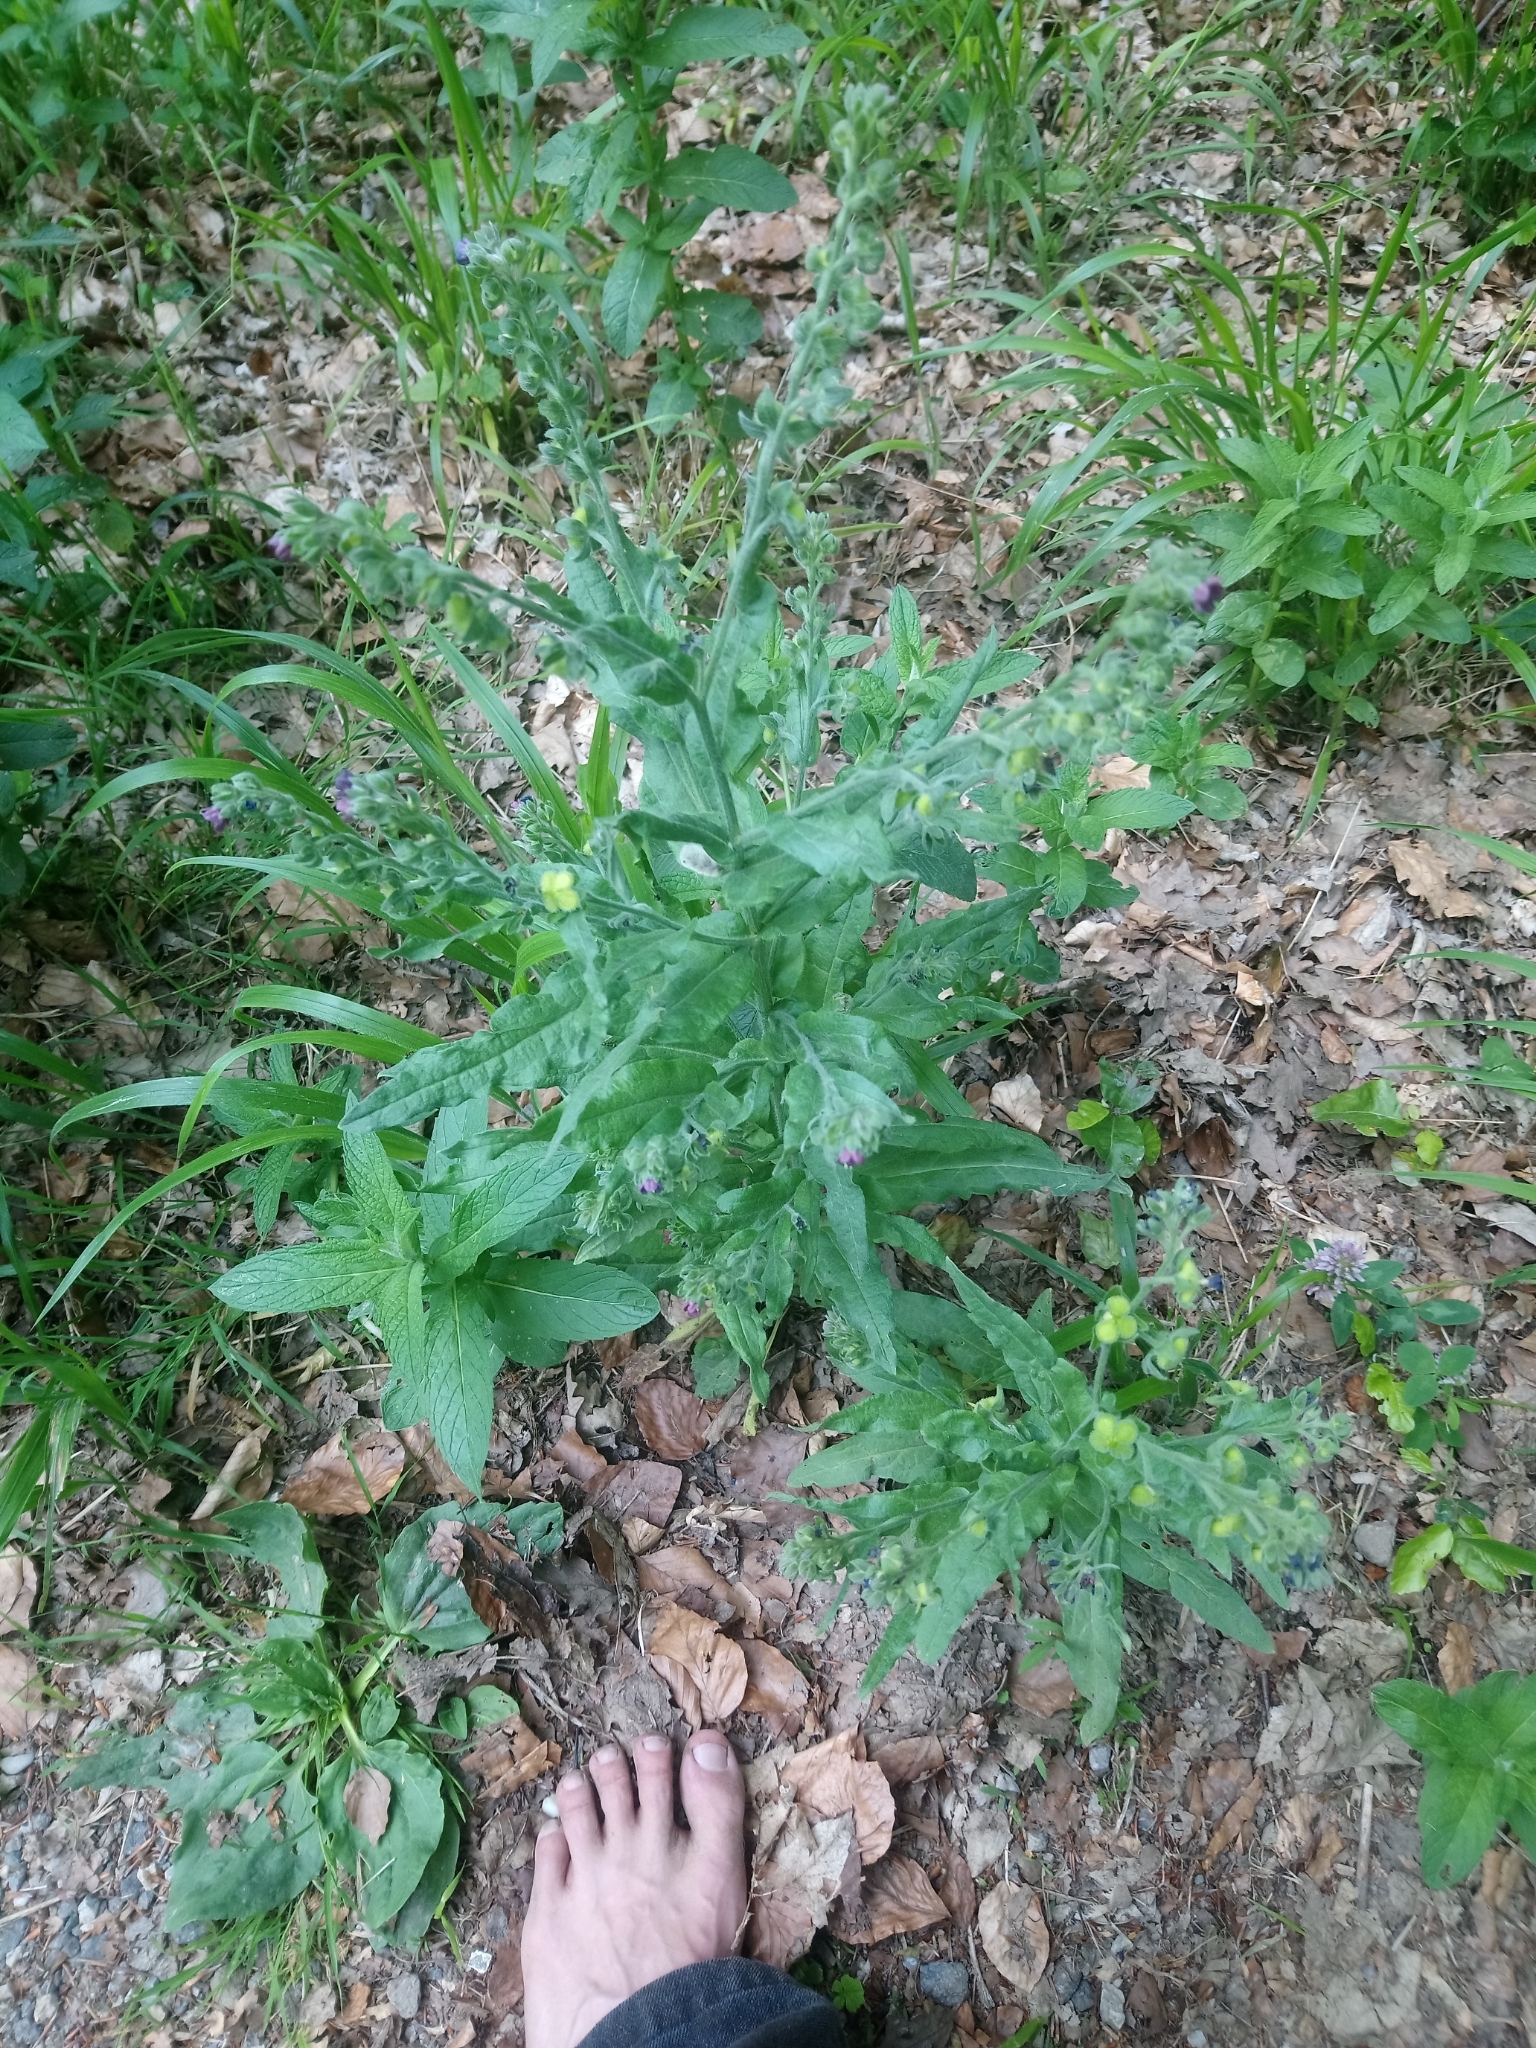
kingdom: Plantae
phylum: Tracheophyta
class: Magnoliopsida
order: Boraginales
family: Boraginaceae
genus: Cynoglossum
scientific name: Cynoglossum officinale
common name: Hound's-tongue
